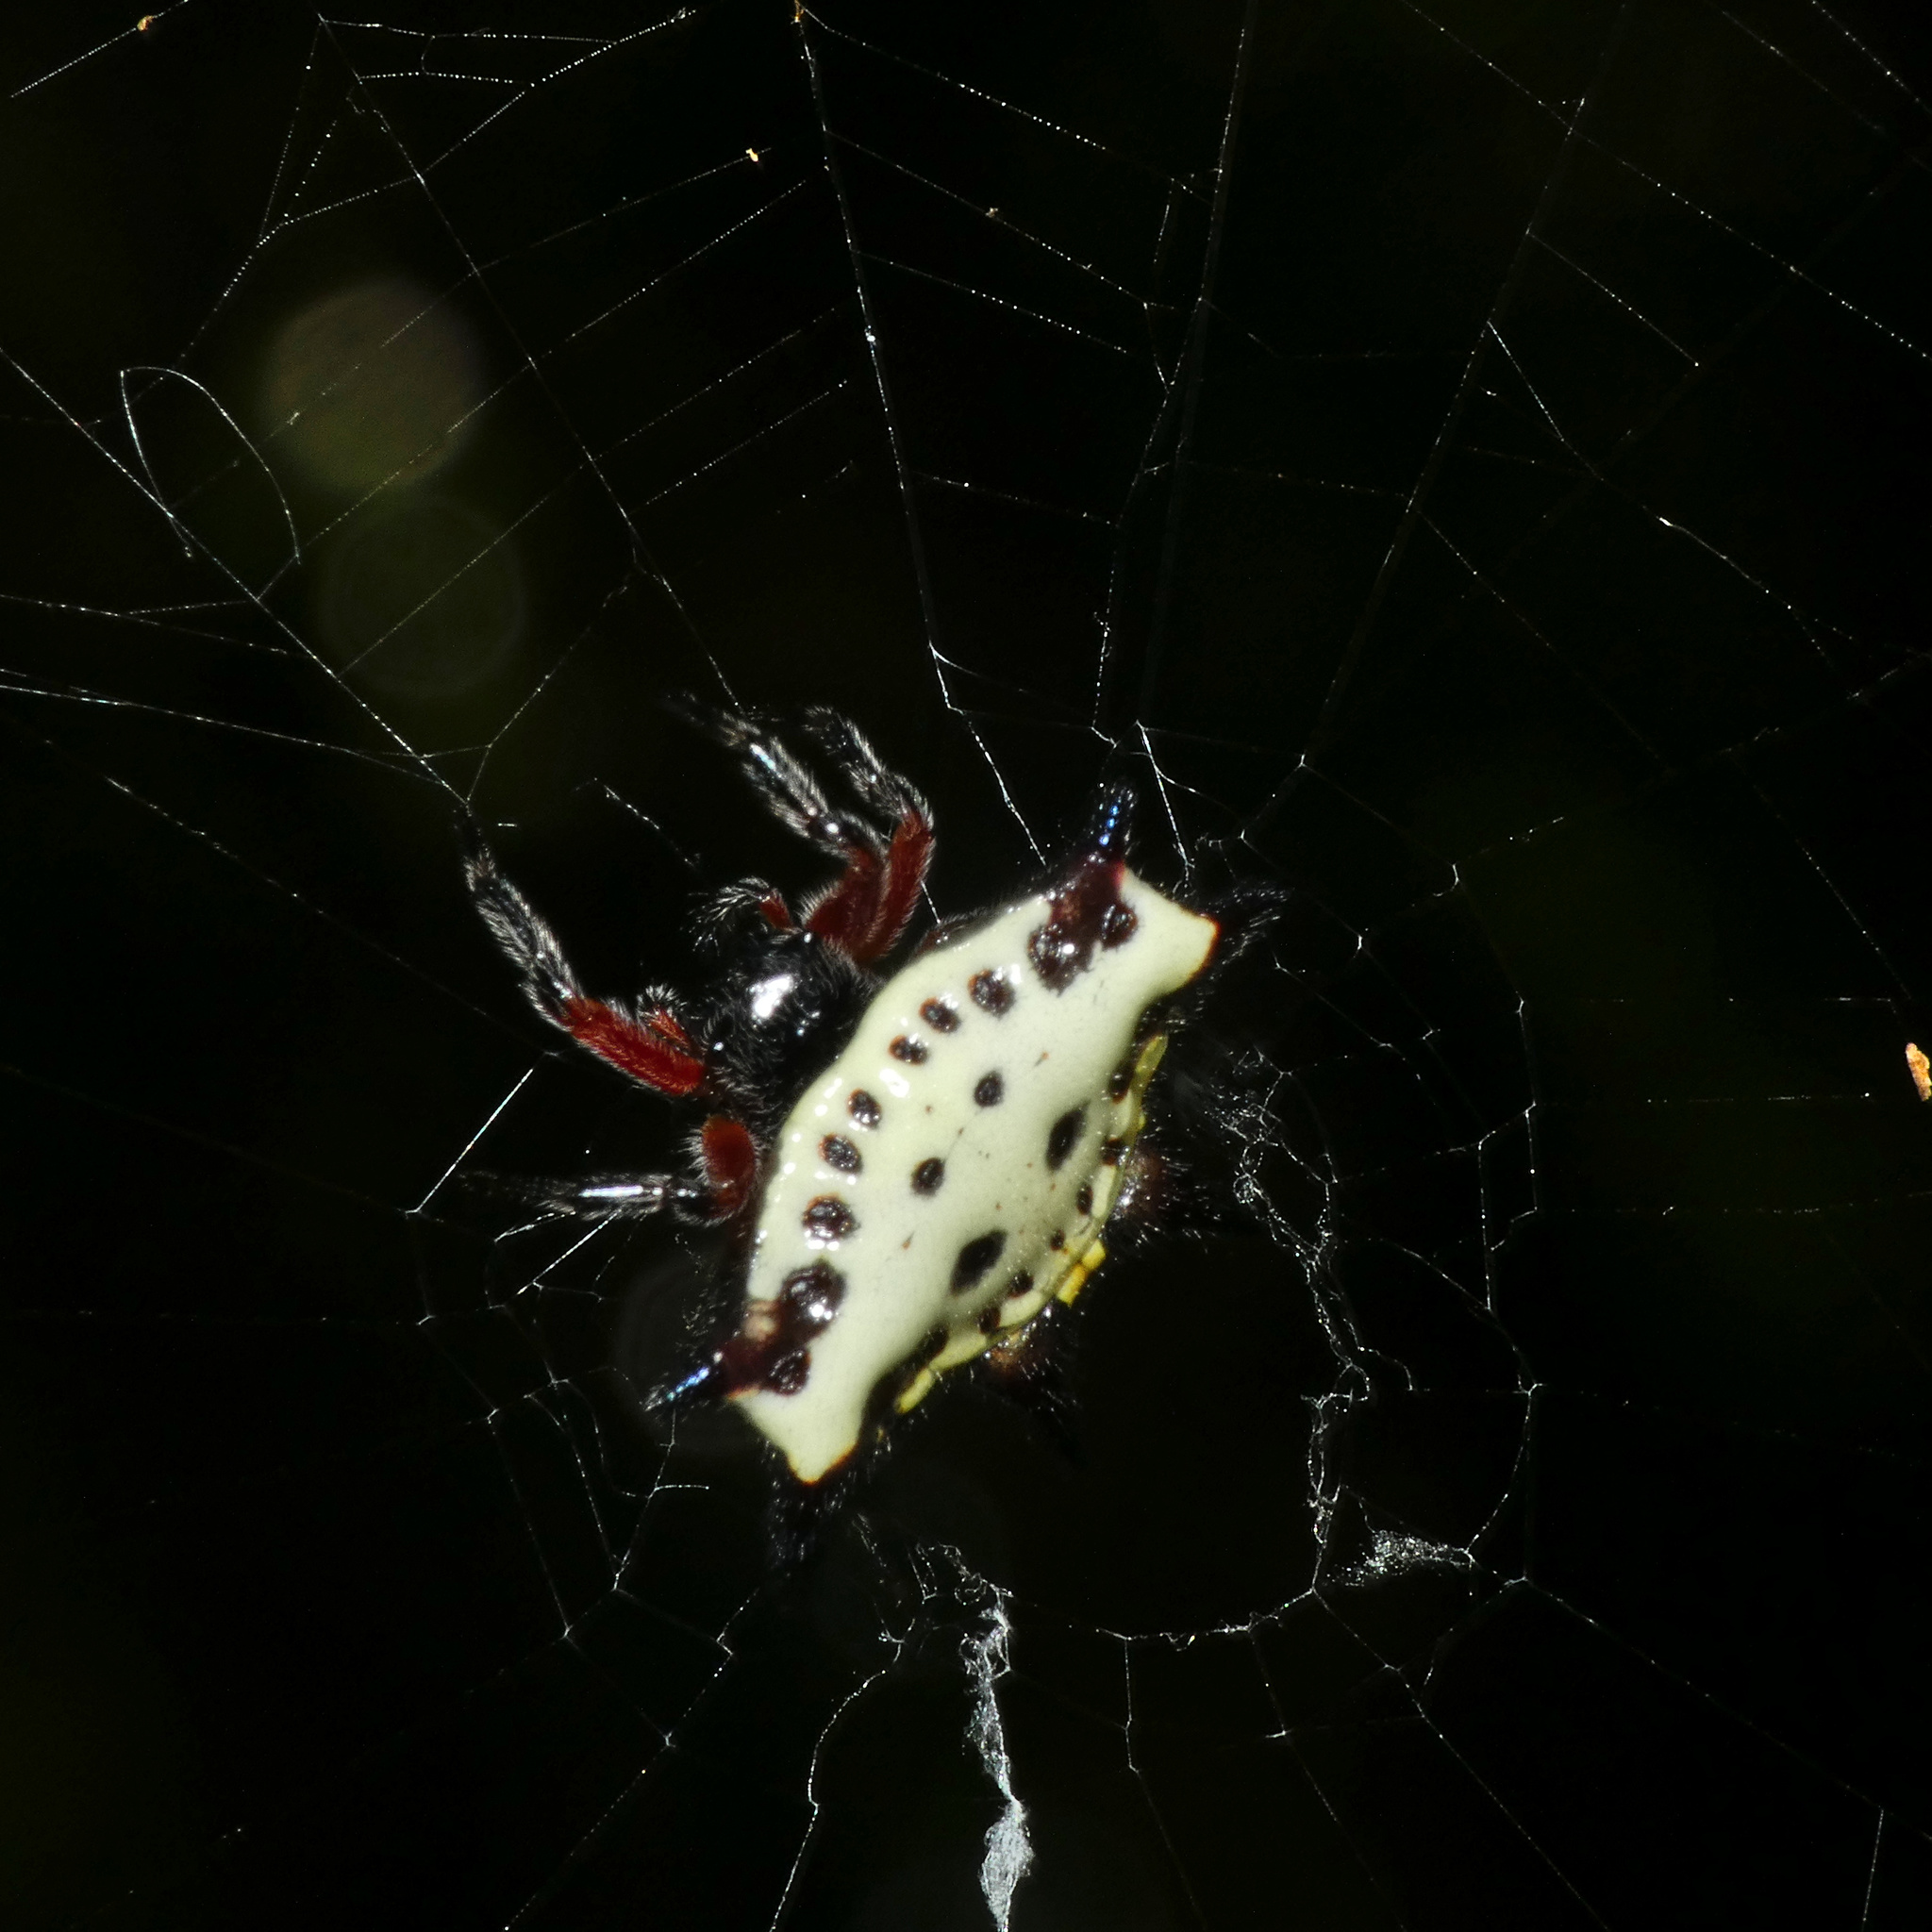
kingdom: Animalia
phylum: Arthropoda
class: Arachnida
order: Araneae
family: Araneidae
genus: Gasteracantha
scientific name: Gasteracantha sanguinolenta
